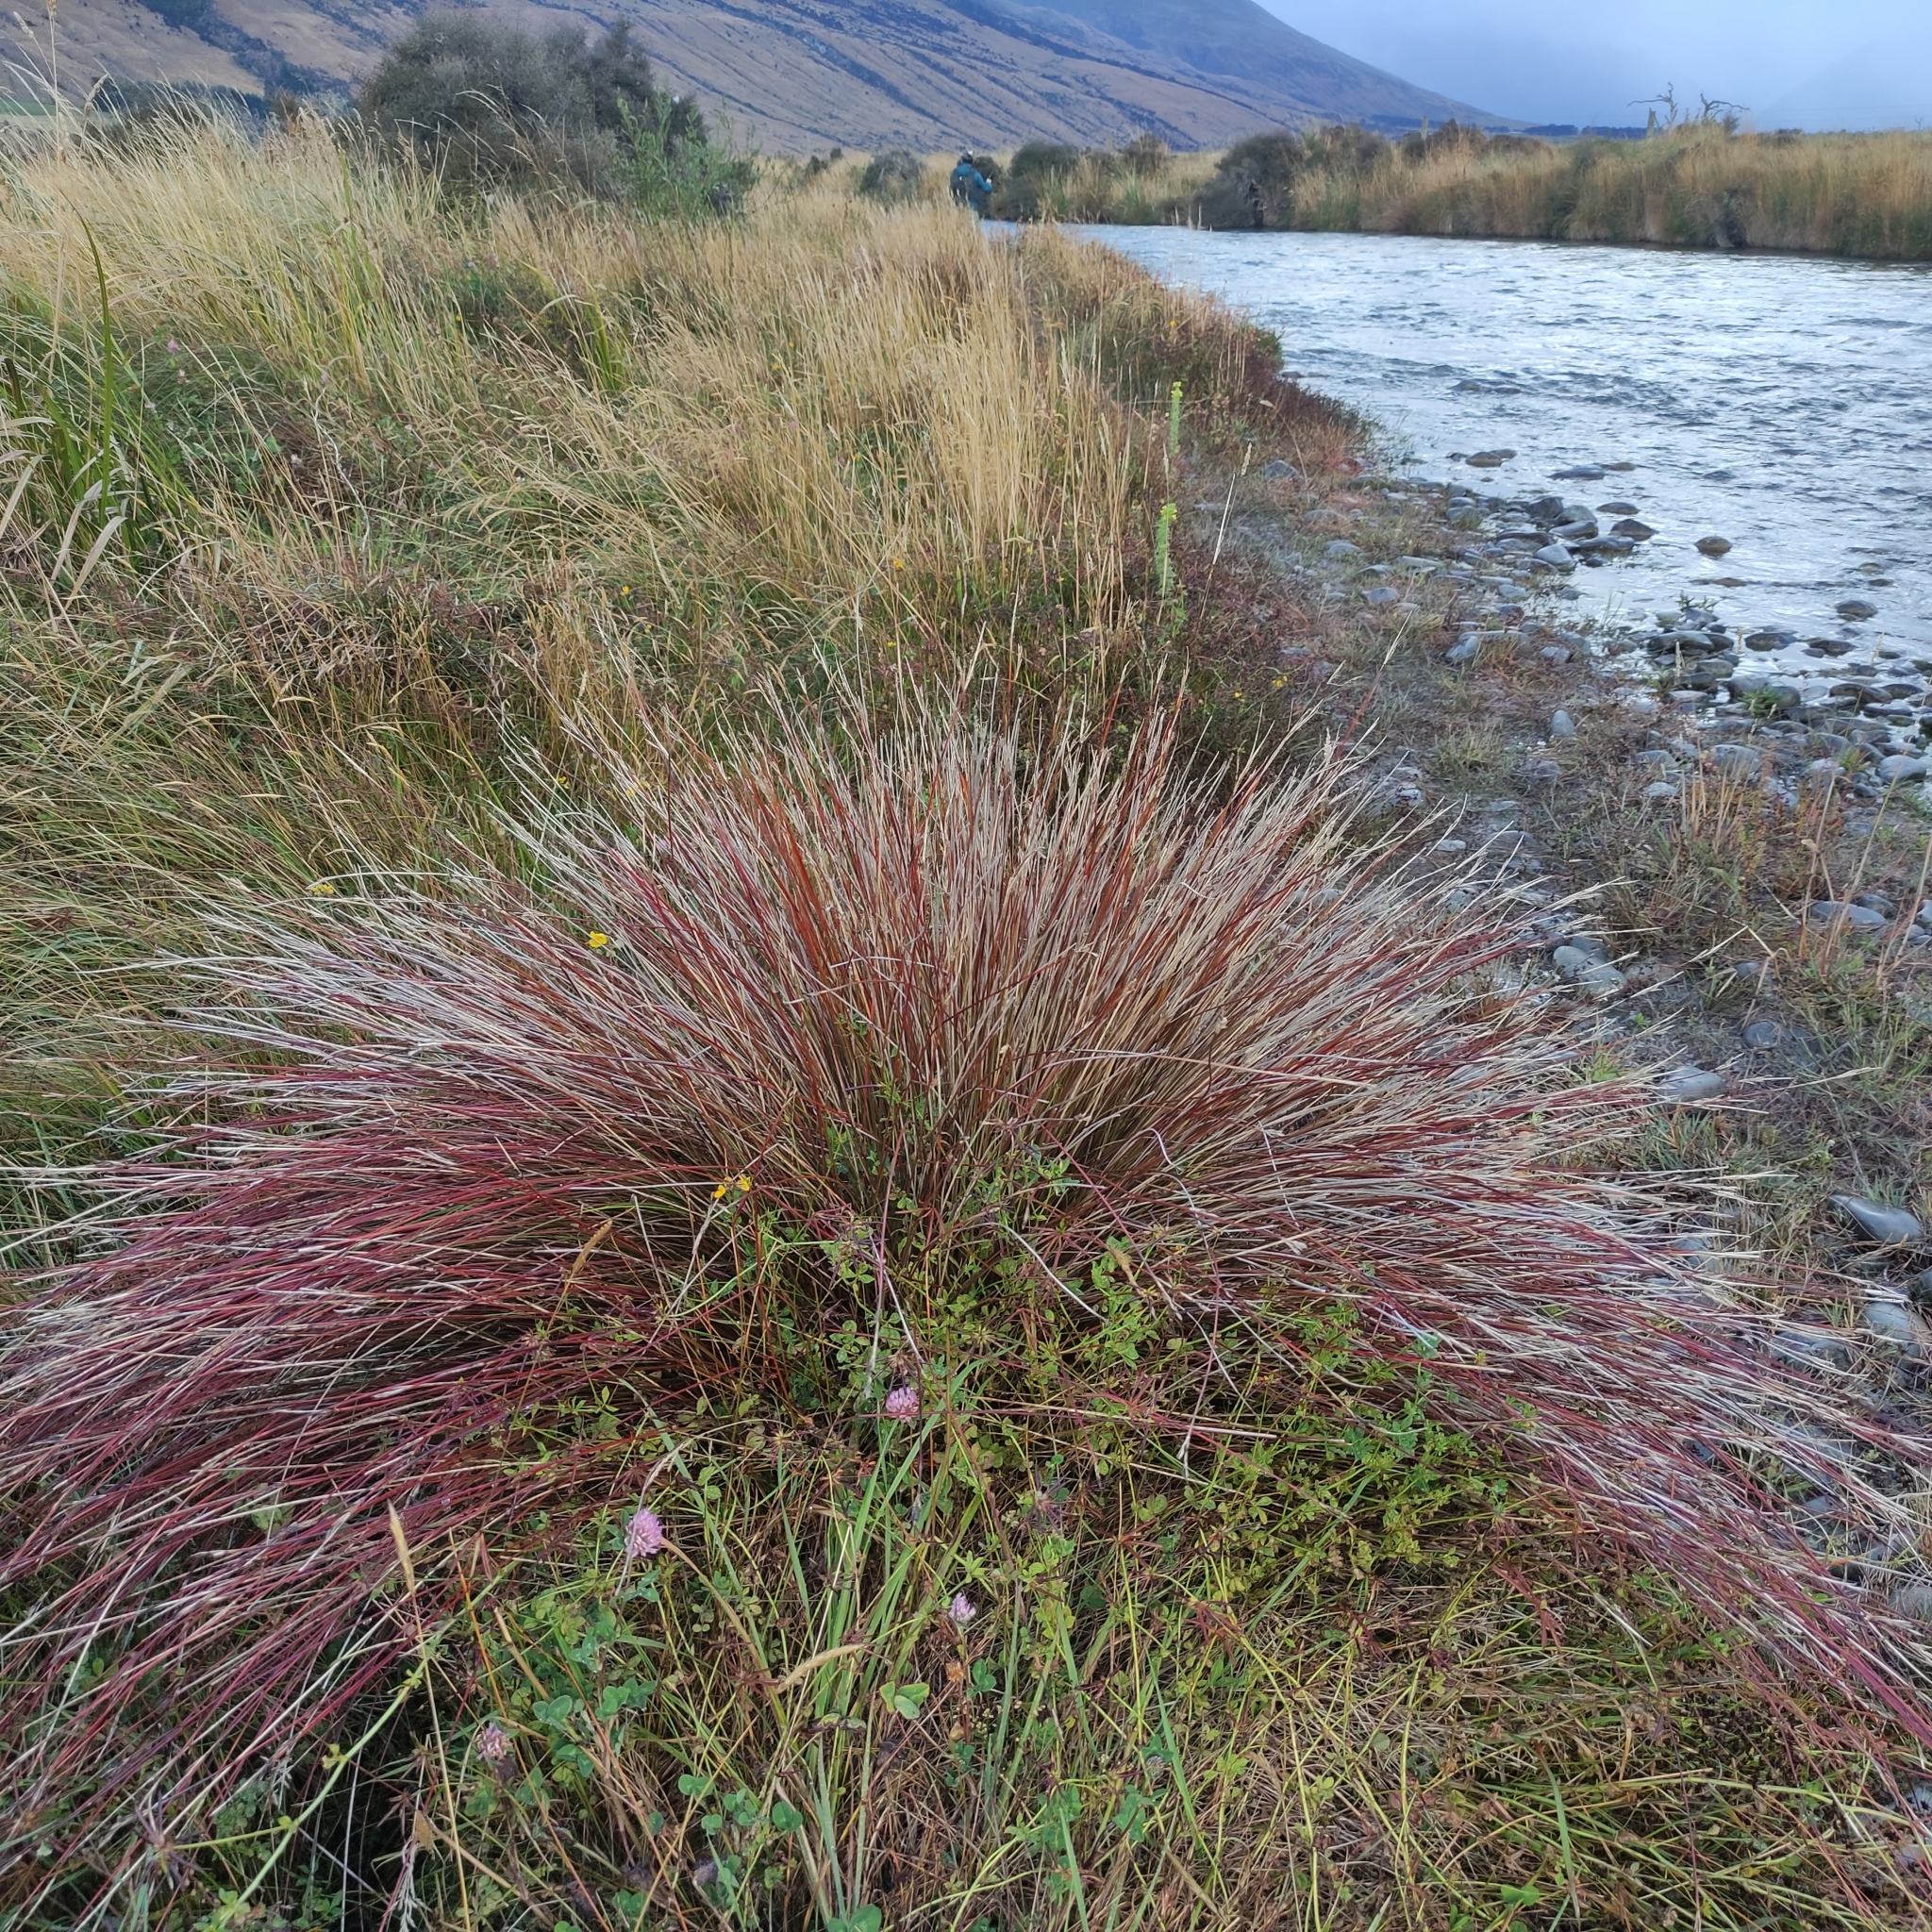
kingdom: Plantae
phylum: Tracheophyta
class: Liliopsida
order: Poales
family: Cyperaceae
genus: Schoenus
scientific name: Schoenus pauciflorus
